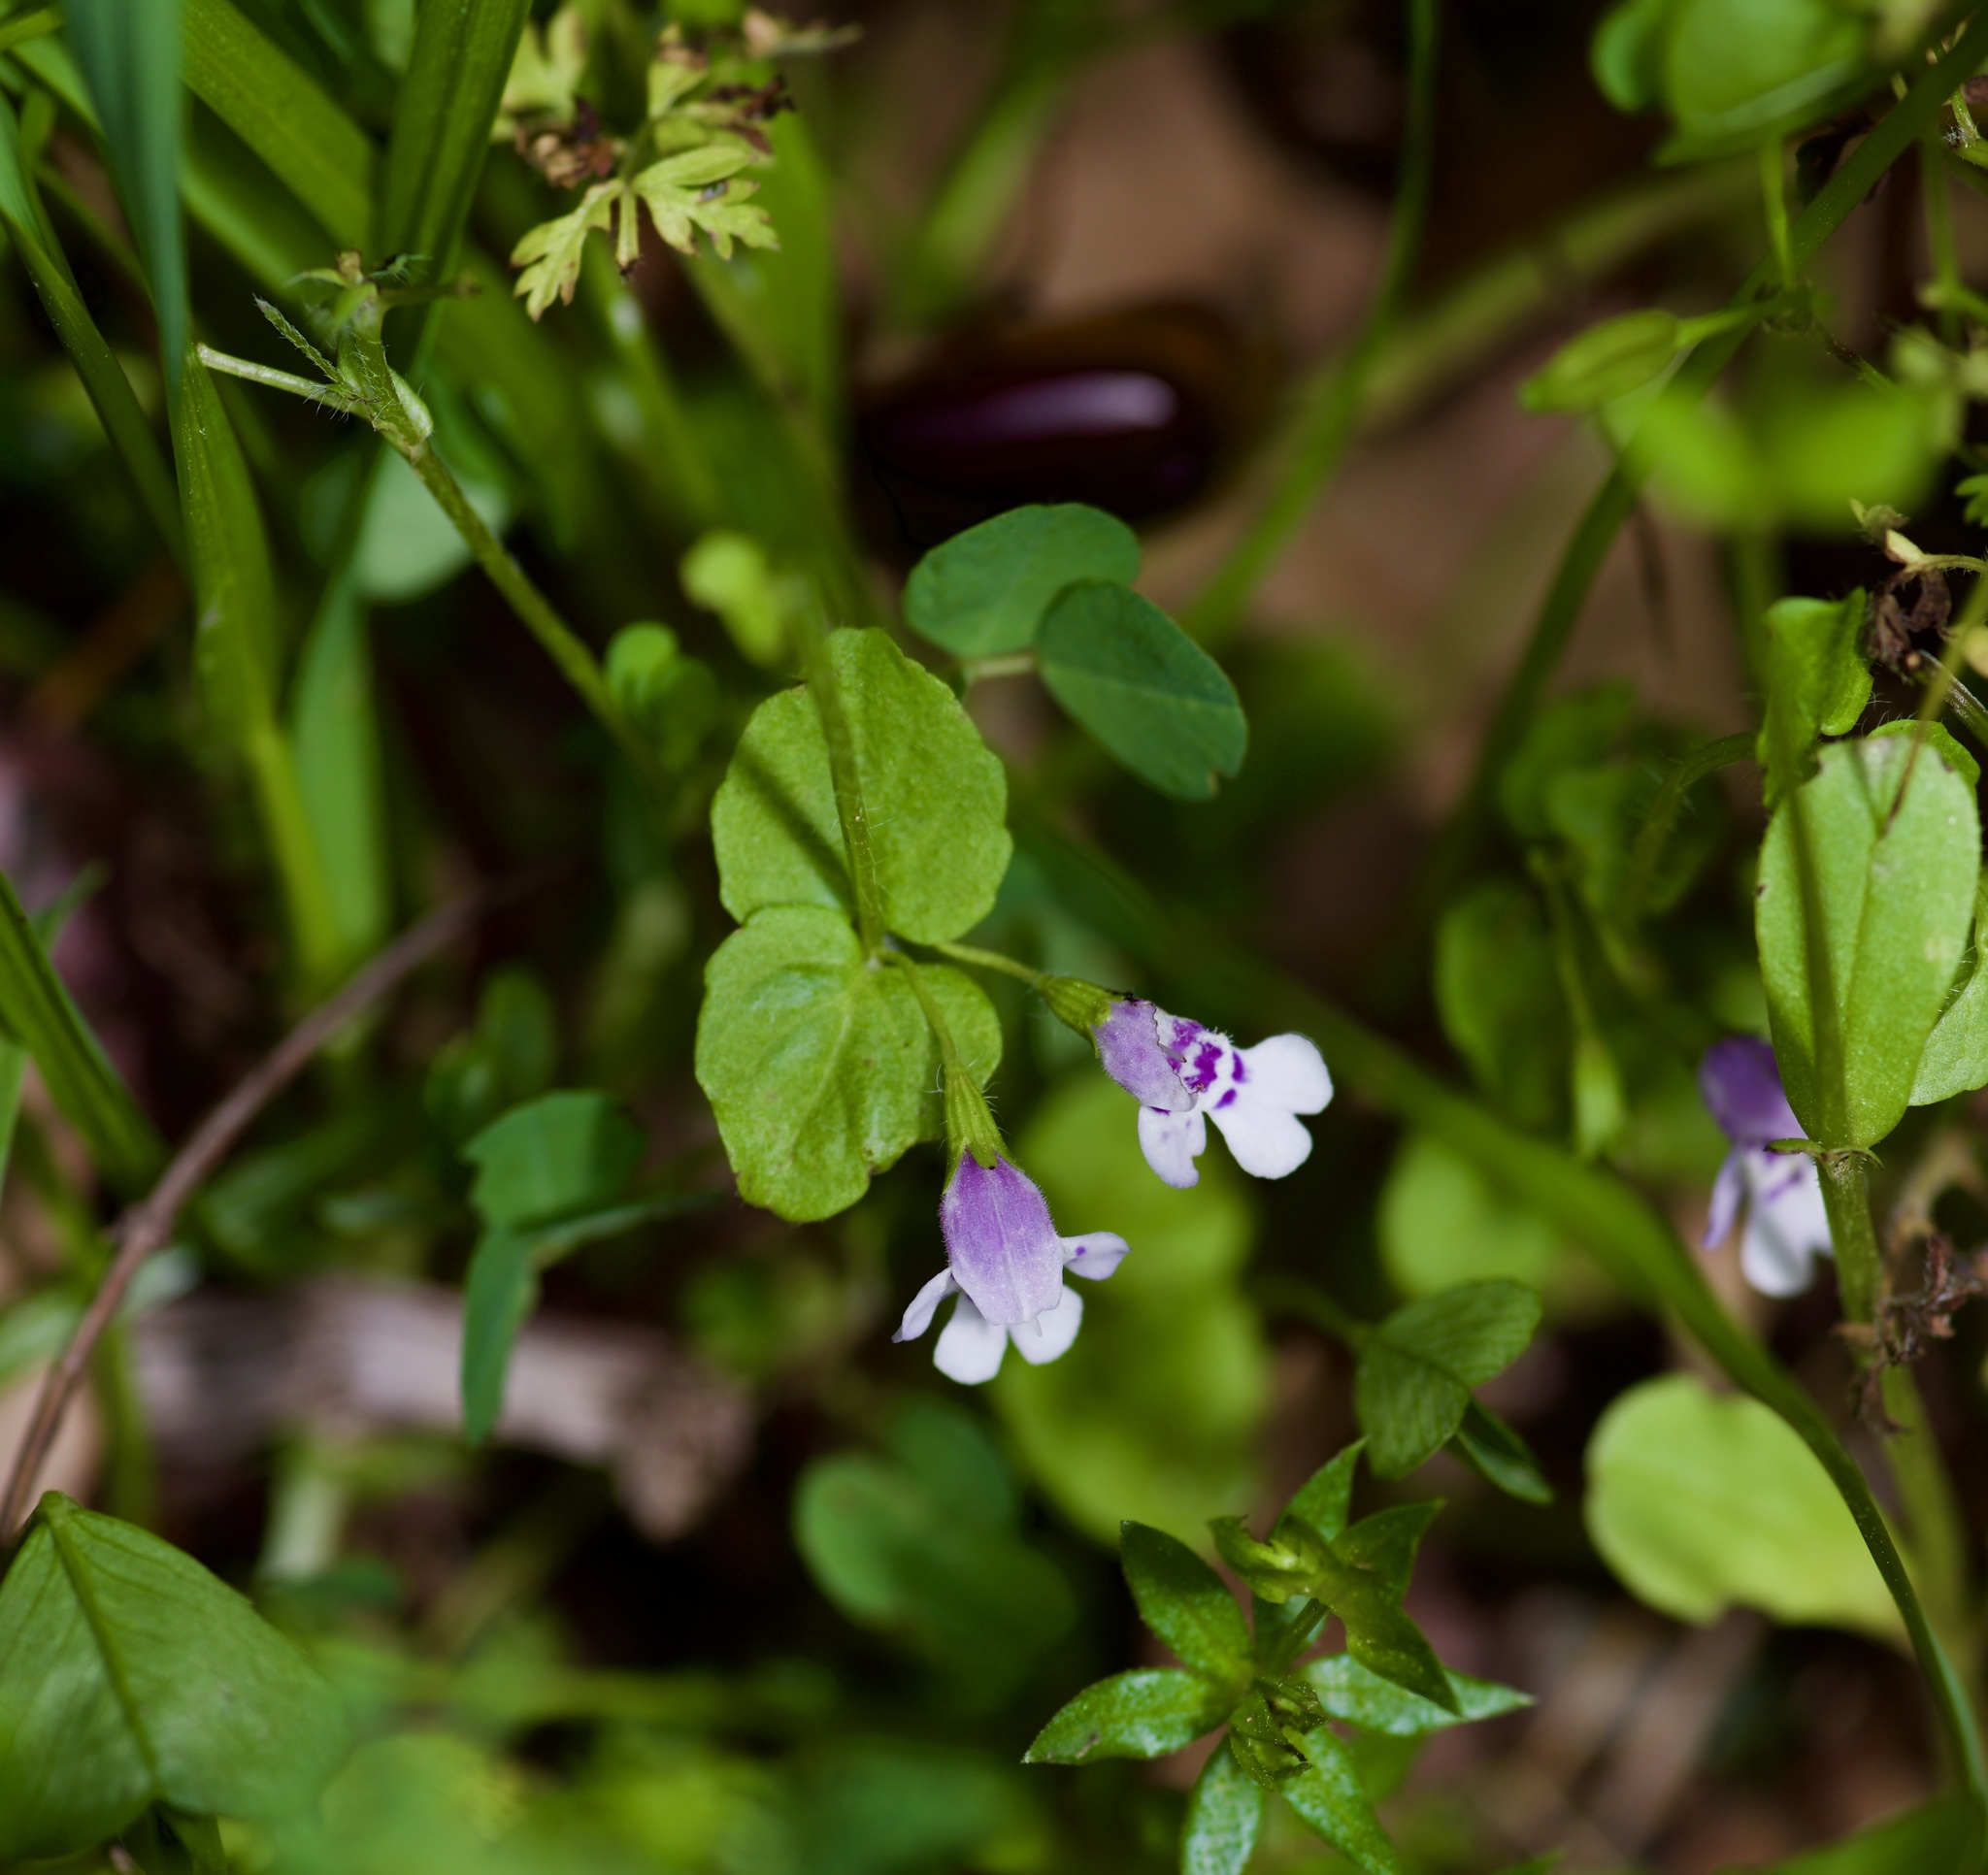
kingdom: Plantae
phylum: Tracheophyta
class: Magnoliopsida
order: Lamiales
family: Lamiaceae
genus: Clinopodium
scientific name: Clinopodium brownei
